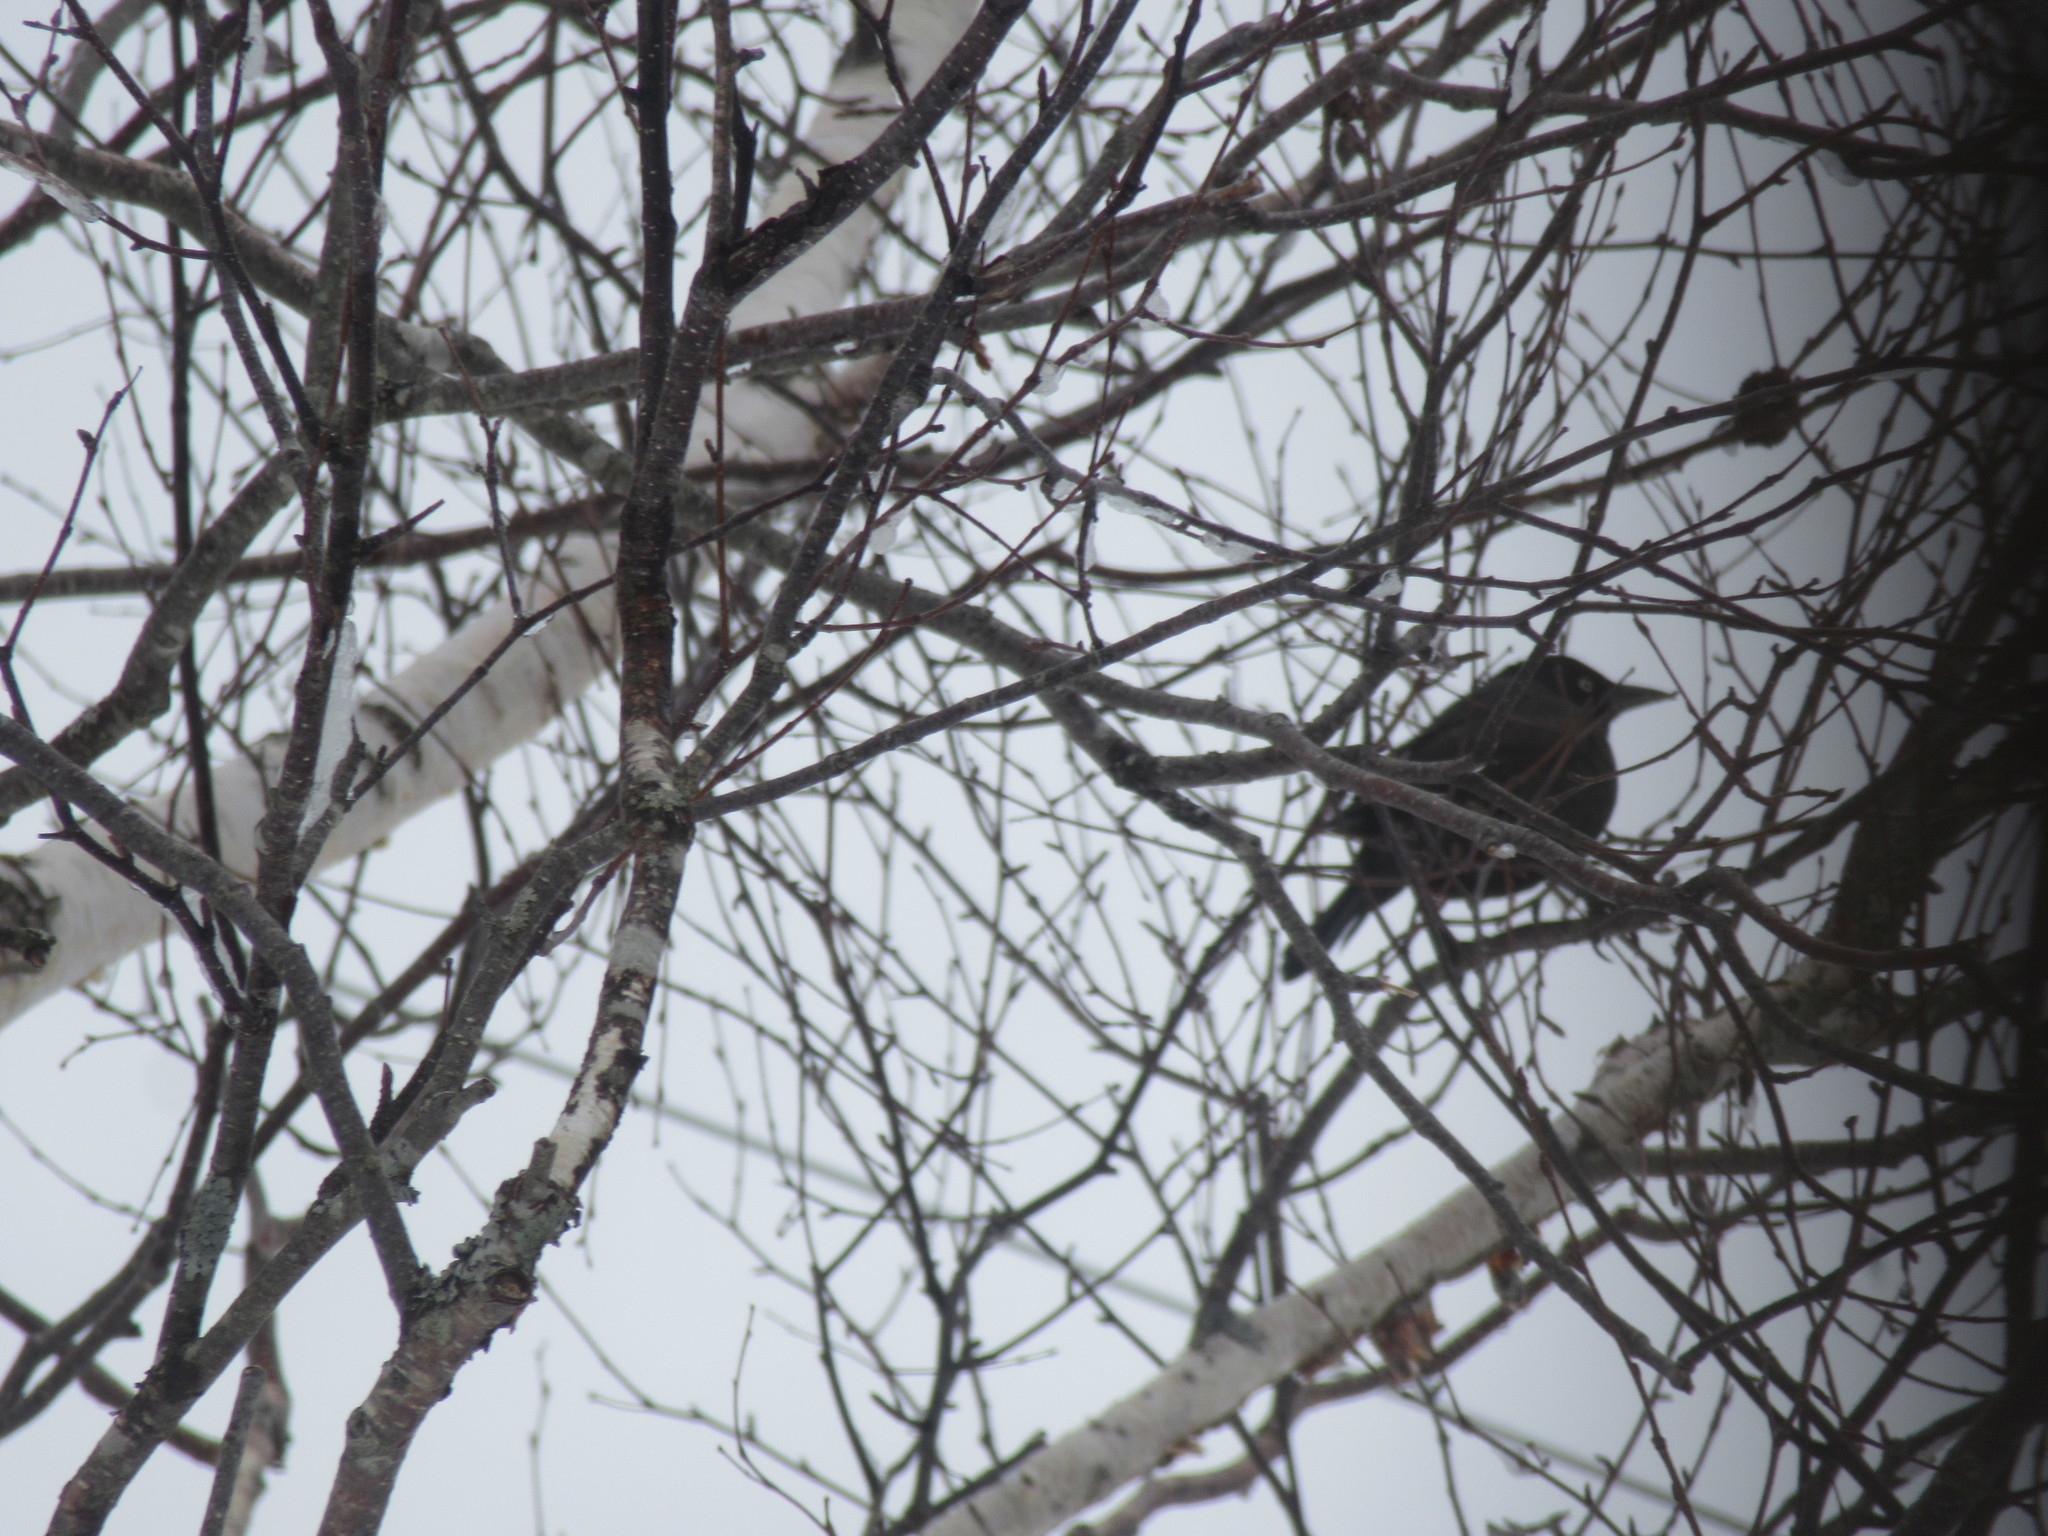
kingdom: Animalia
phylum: Chordata
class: Aves
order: Passeriformes
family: Icteridae
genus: Quiscalus
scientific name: Quiscalus quiscula
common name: Common grackle
